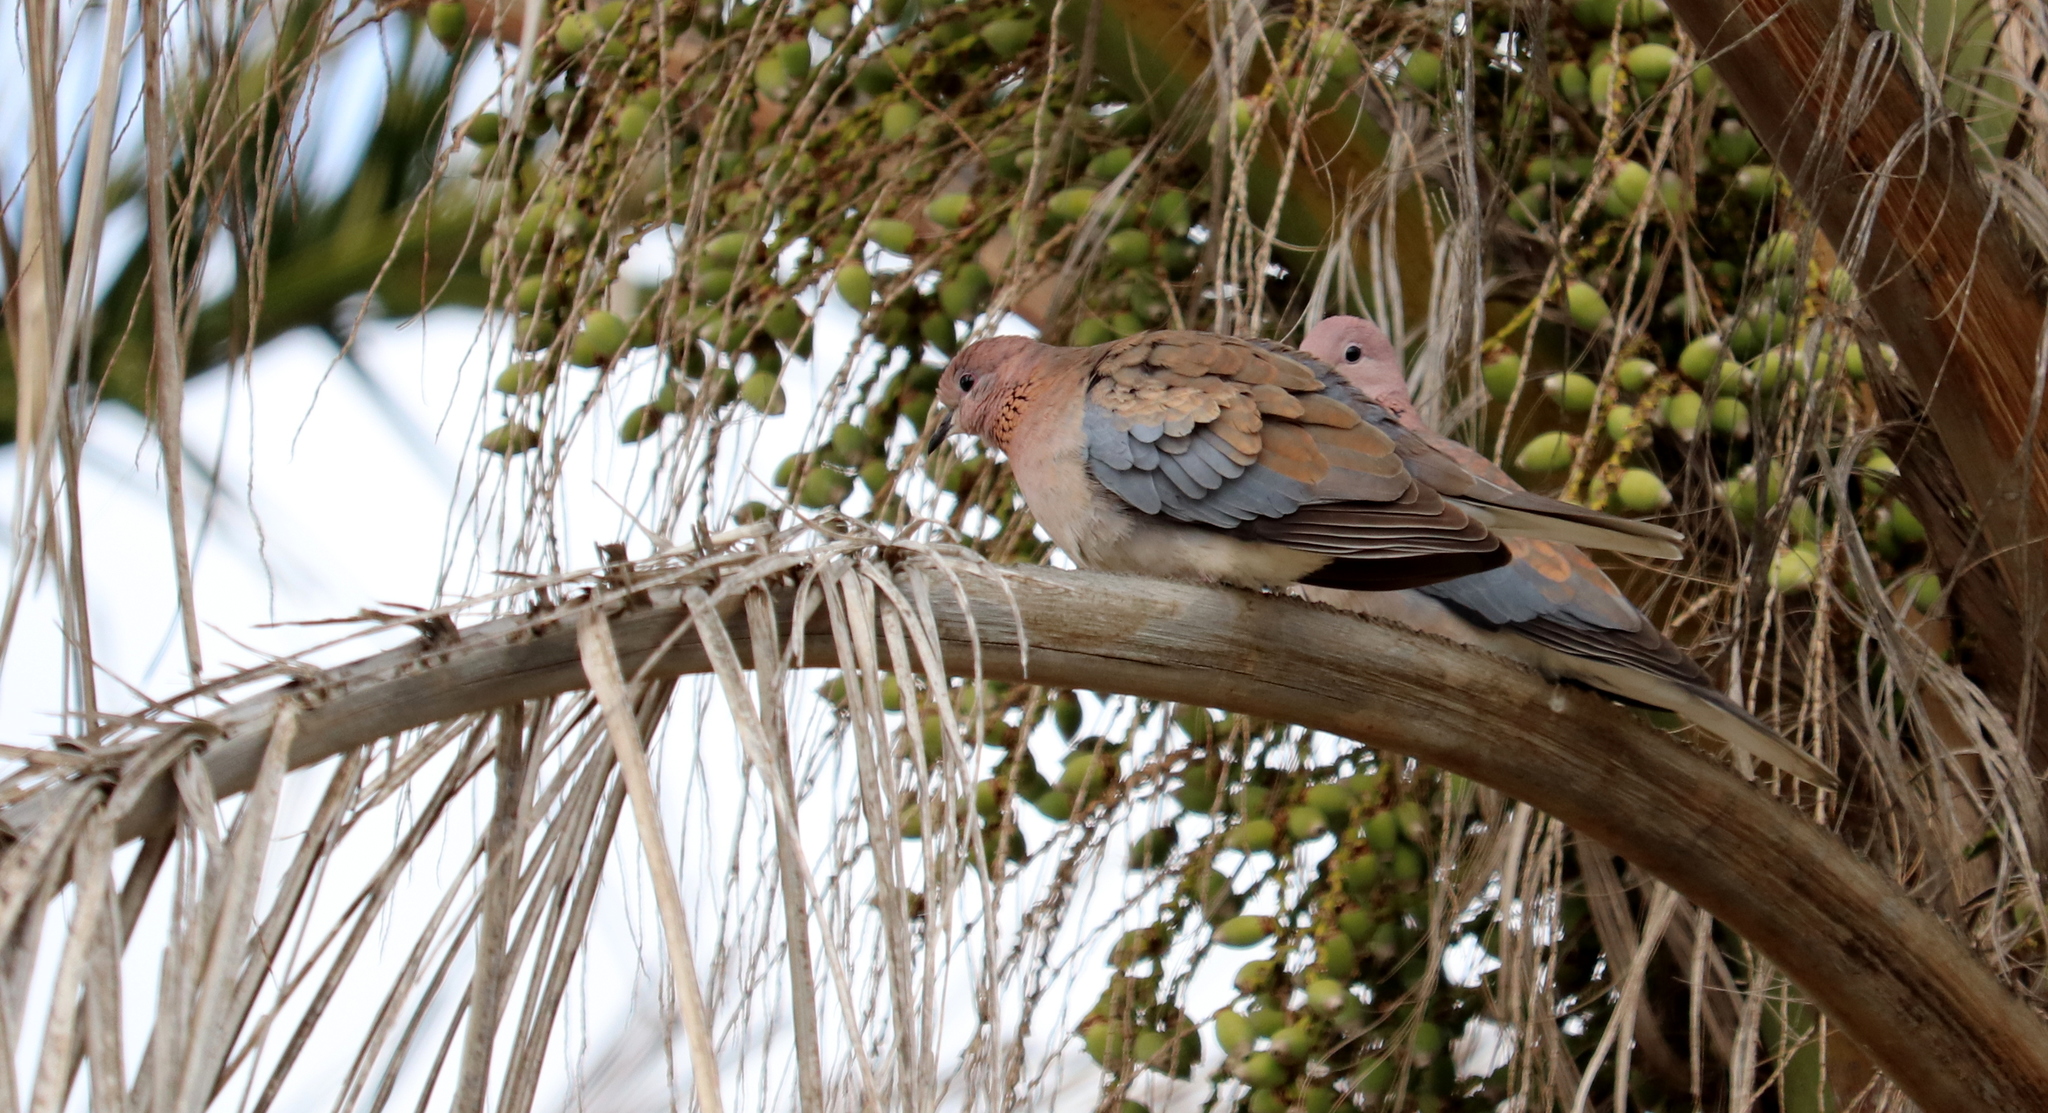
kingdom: Animalia
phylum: Chordata
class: Aves
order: Columbiformes
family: Columbidae
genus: Spilopelia
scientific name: Spilopelia senegalensis
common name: Laughing dove
